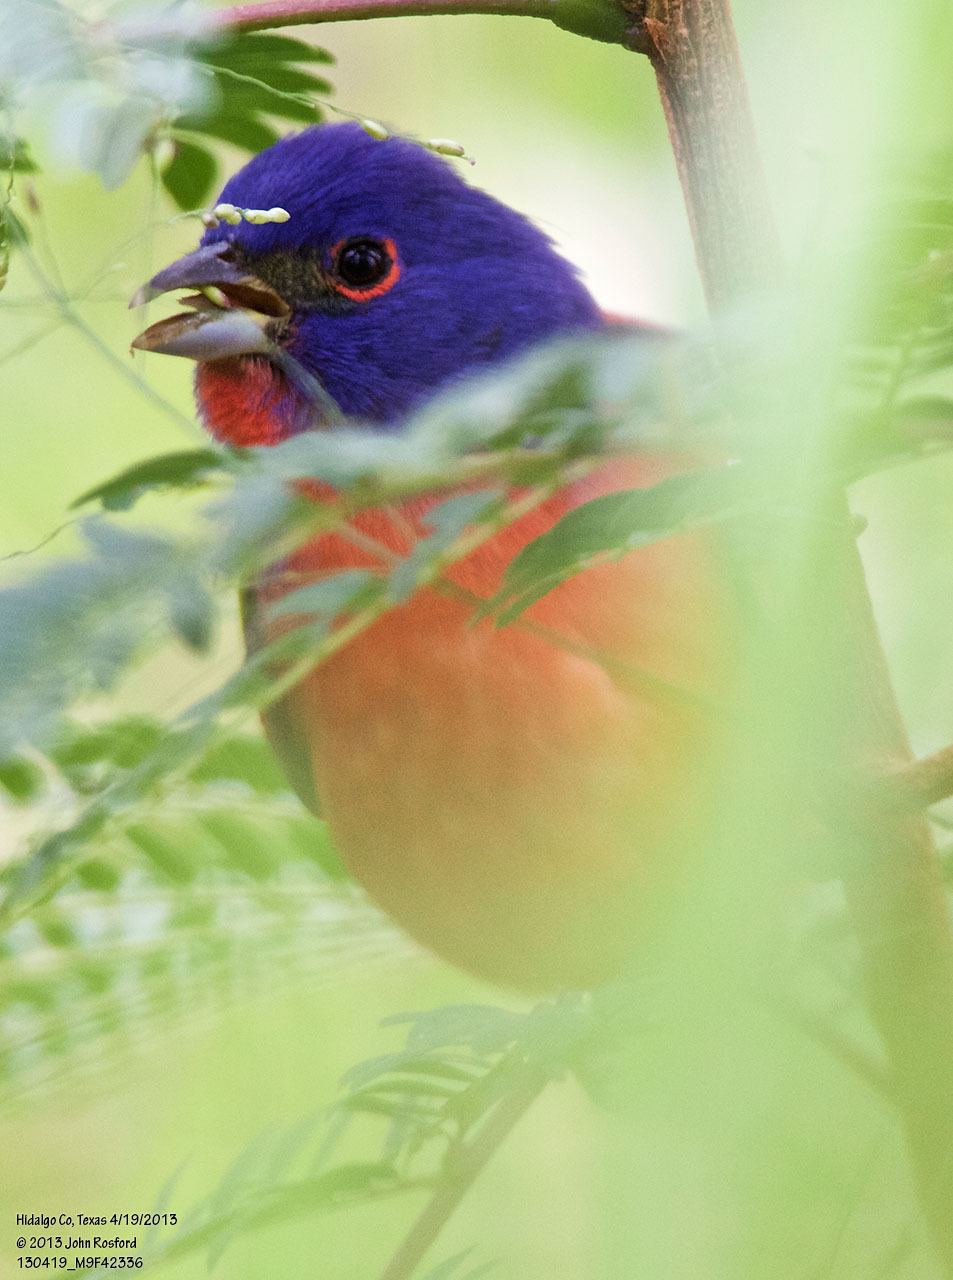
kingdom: Animalia
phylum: Chordata
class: Aves
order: Passeriformes
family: Cardinalidae
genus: Passerina
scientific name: Passerina ciris
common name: Painted bunting
